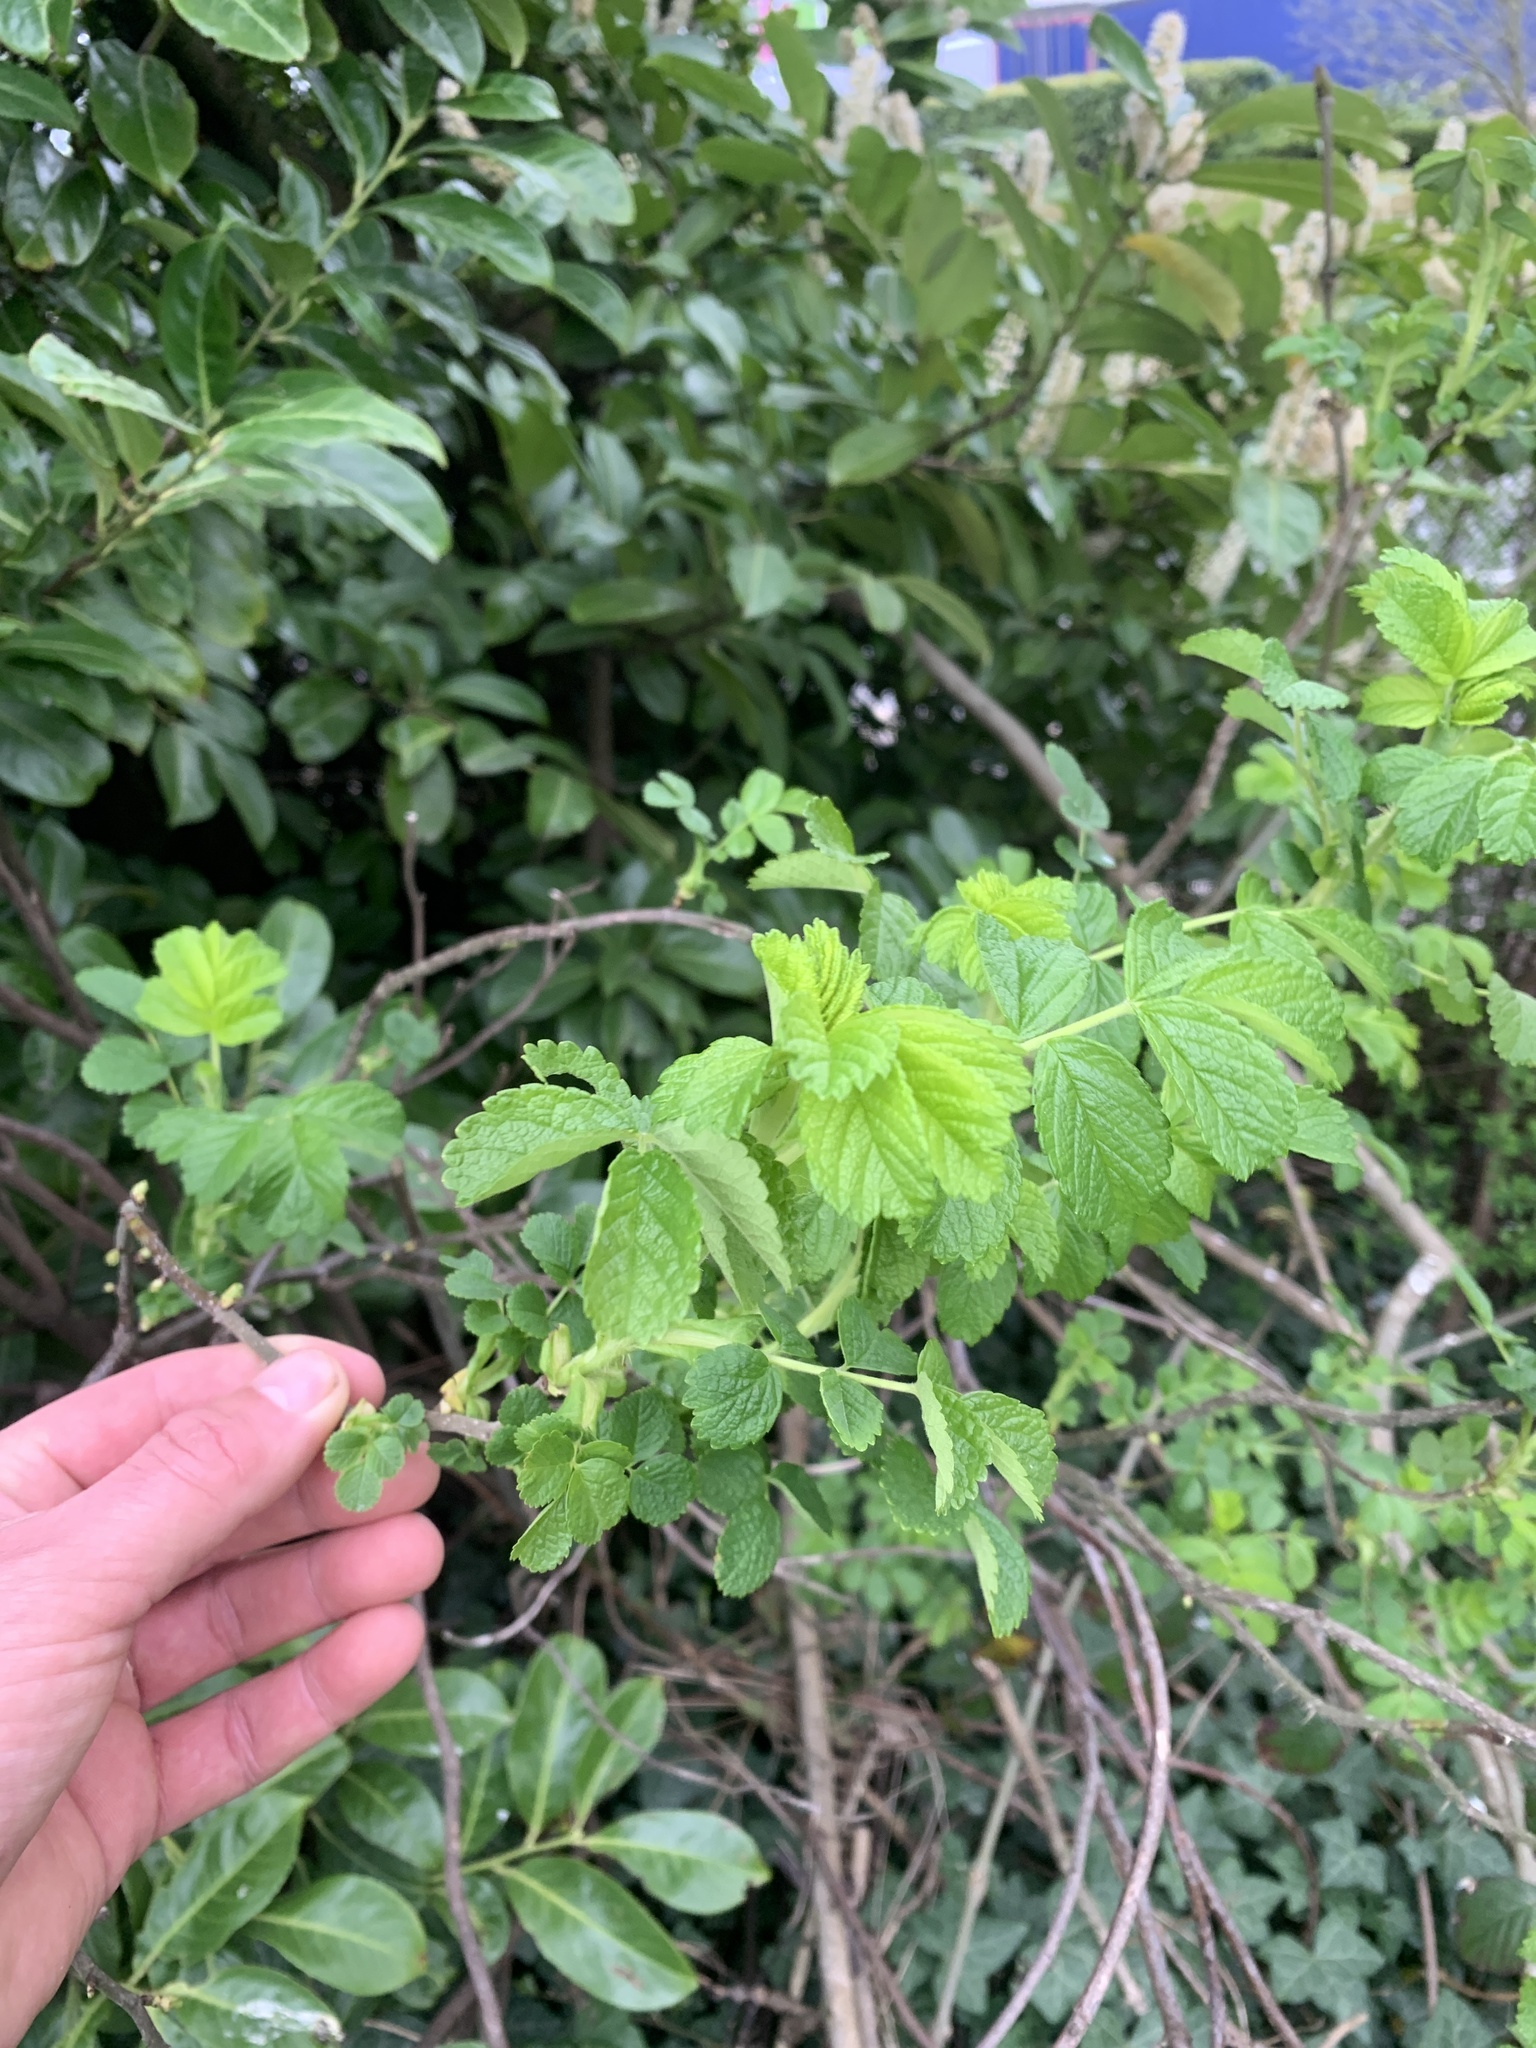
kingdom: Plantae
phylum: Tracheophyta
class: Magnoliopsida
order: Rosales
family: Rosaceae
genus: Rosa
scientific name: Rosa rugosa
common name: Japanese rose
